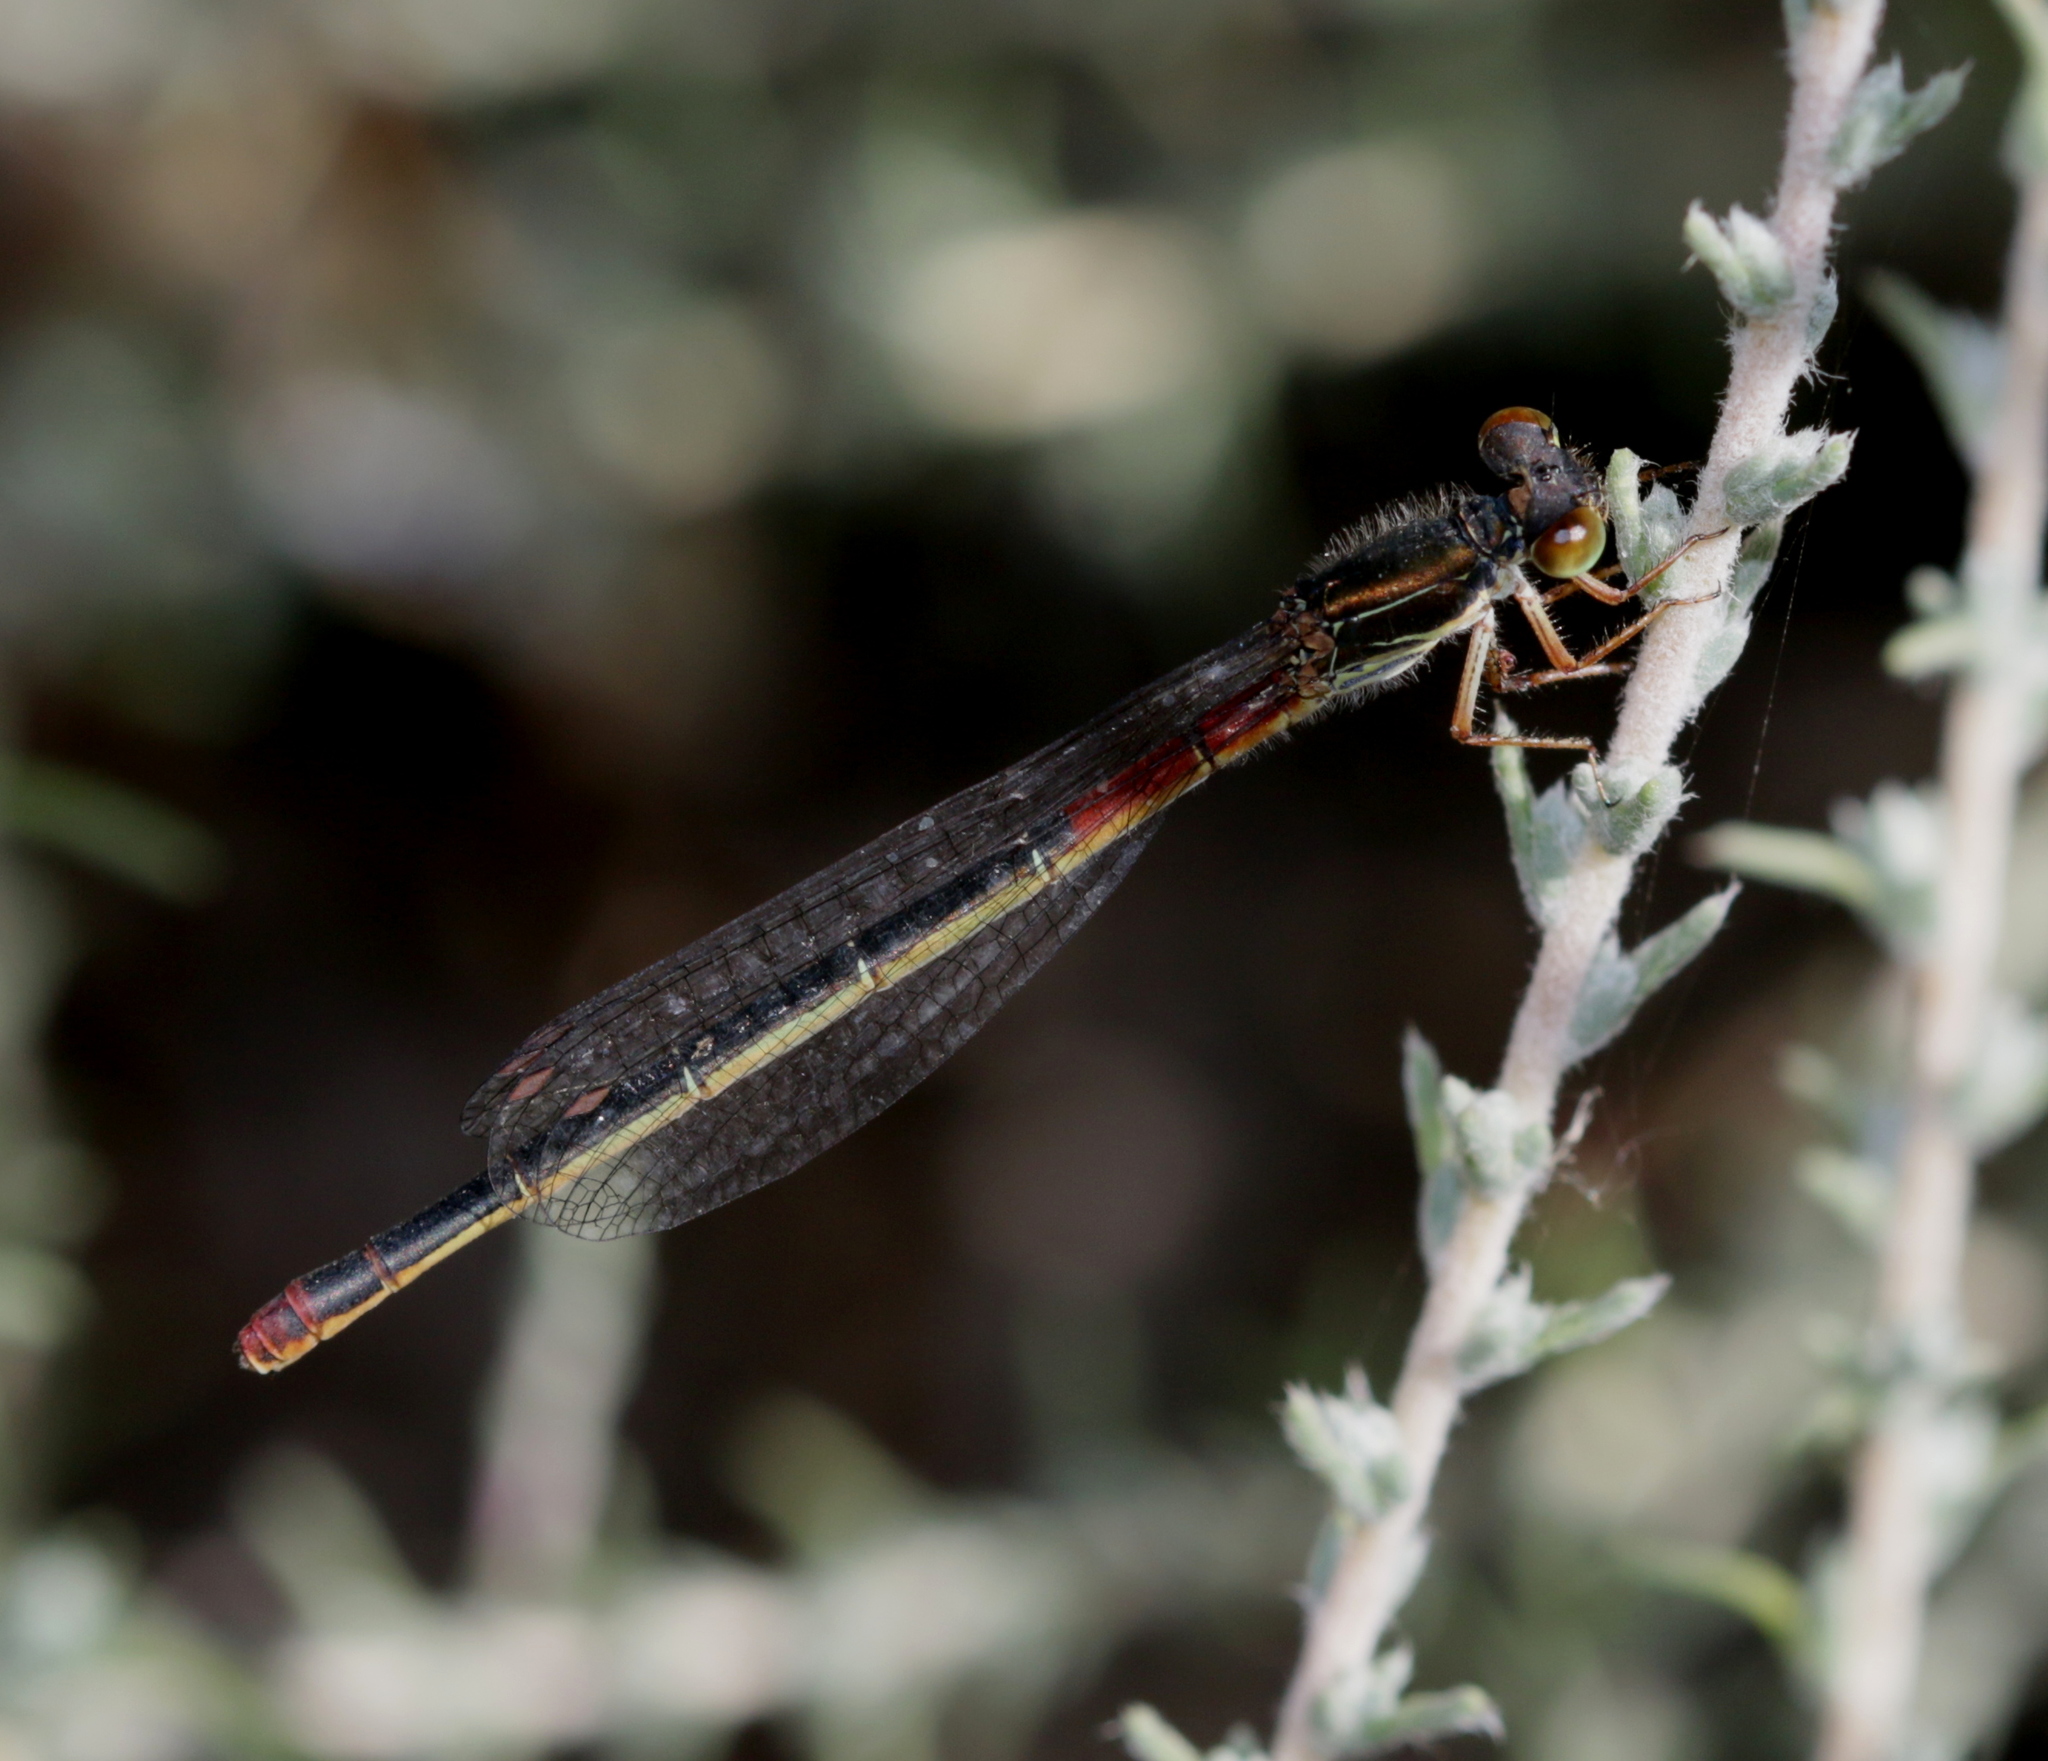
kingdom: Animalia
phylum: Arthropoda
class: Insecta
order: Odonata
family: Coenagrionidae
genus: Ceriagrion
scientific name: Ceriagrion tenellum
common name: Small red damselfly
